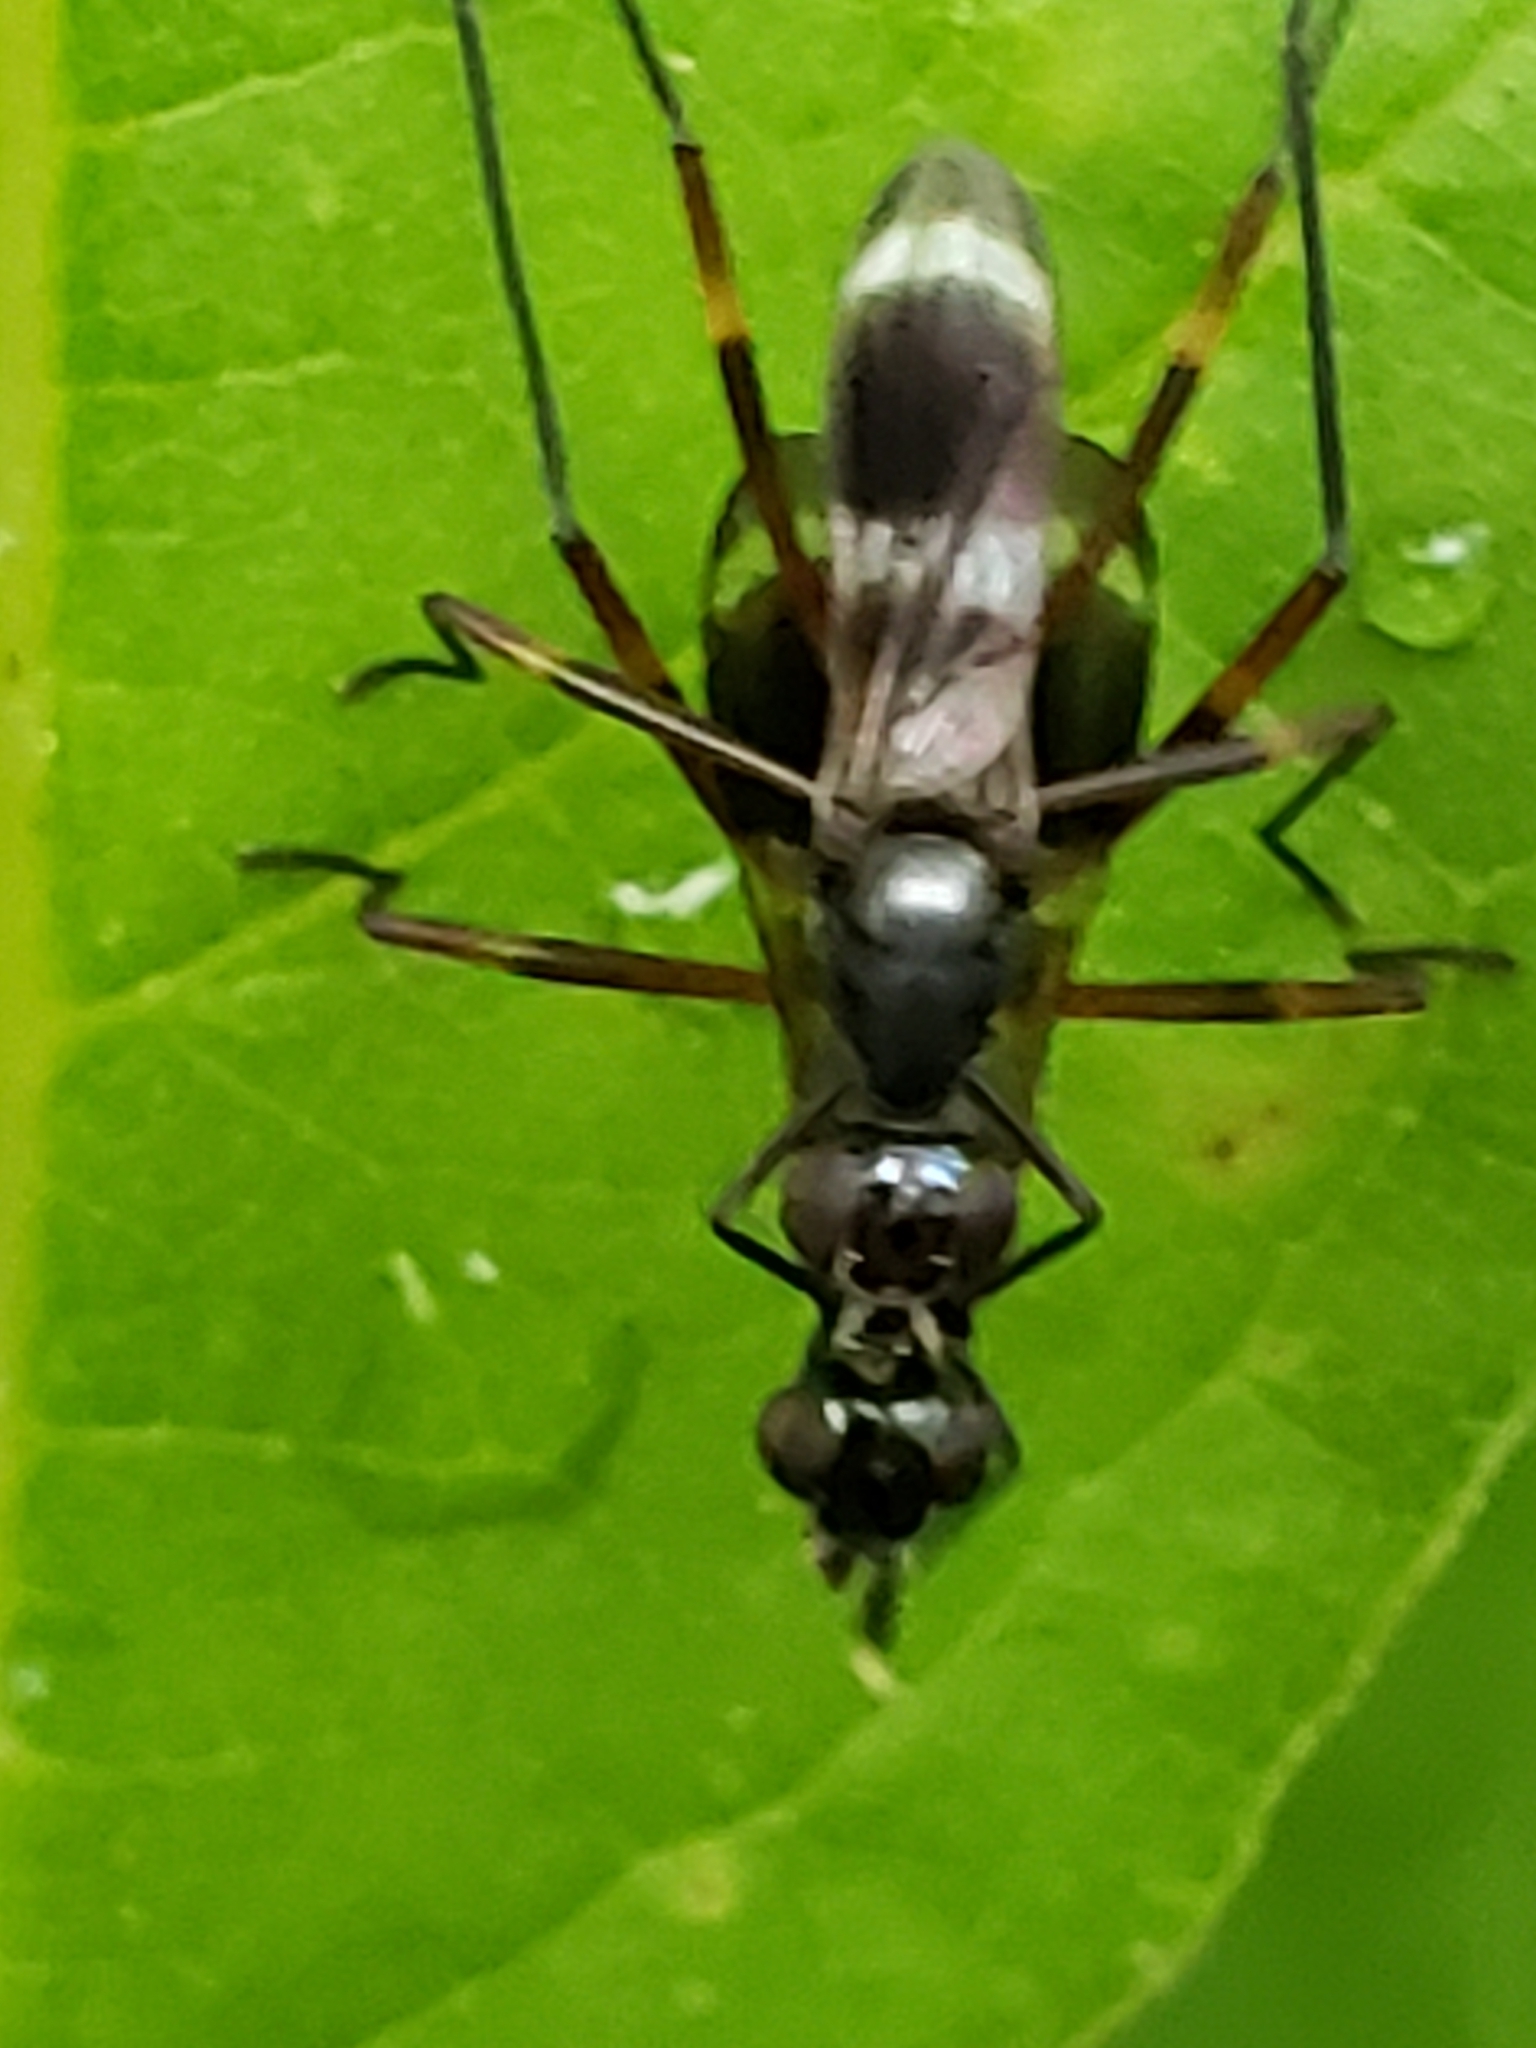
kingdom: Animalia
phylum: Arthropoda
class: Insecta
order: Diptera
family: Micropezidae
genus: Taeniaptera
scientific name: Taeniaptera trivittata
